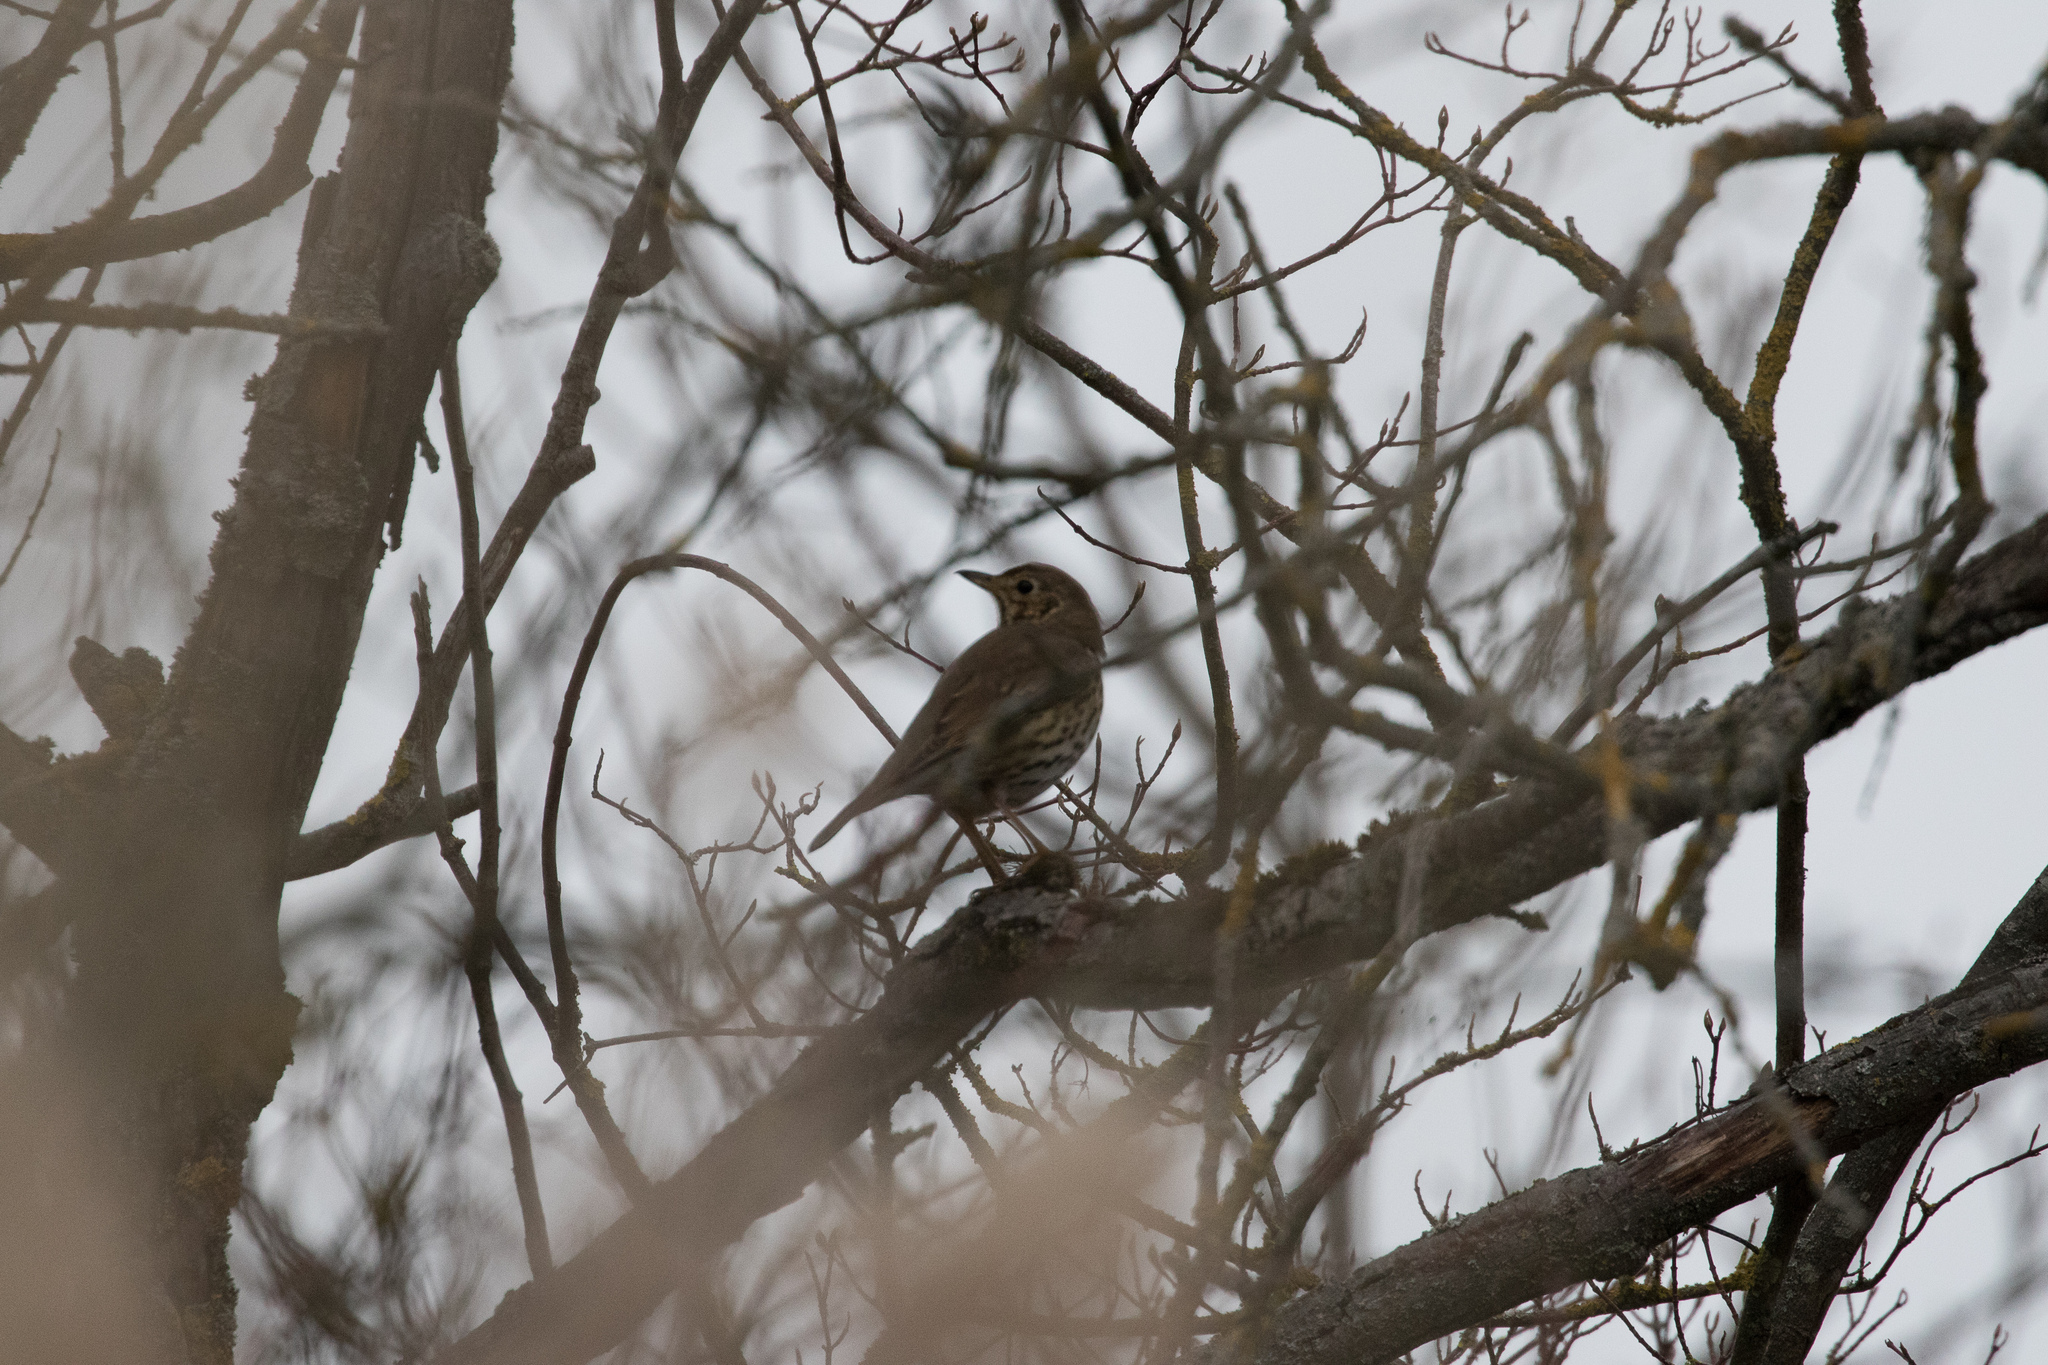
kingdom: Animalia
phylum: Chordata
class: Aves
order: Passeriformes
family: Turdidae
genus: Turdus
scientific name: Turdus philomelos
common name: Song thrush
